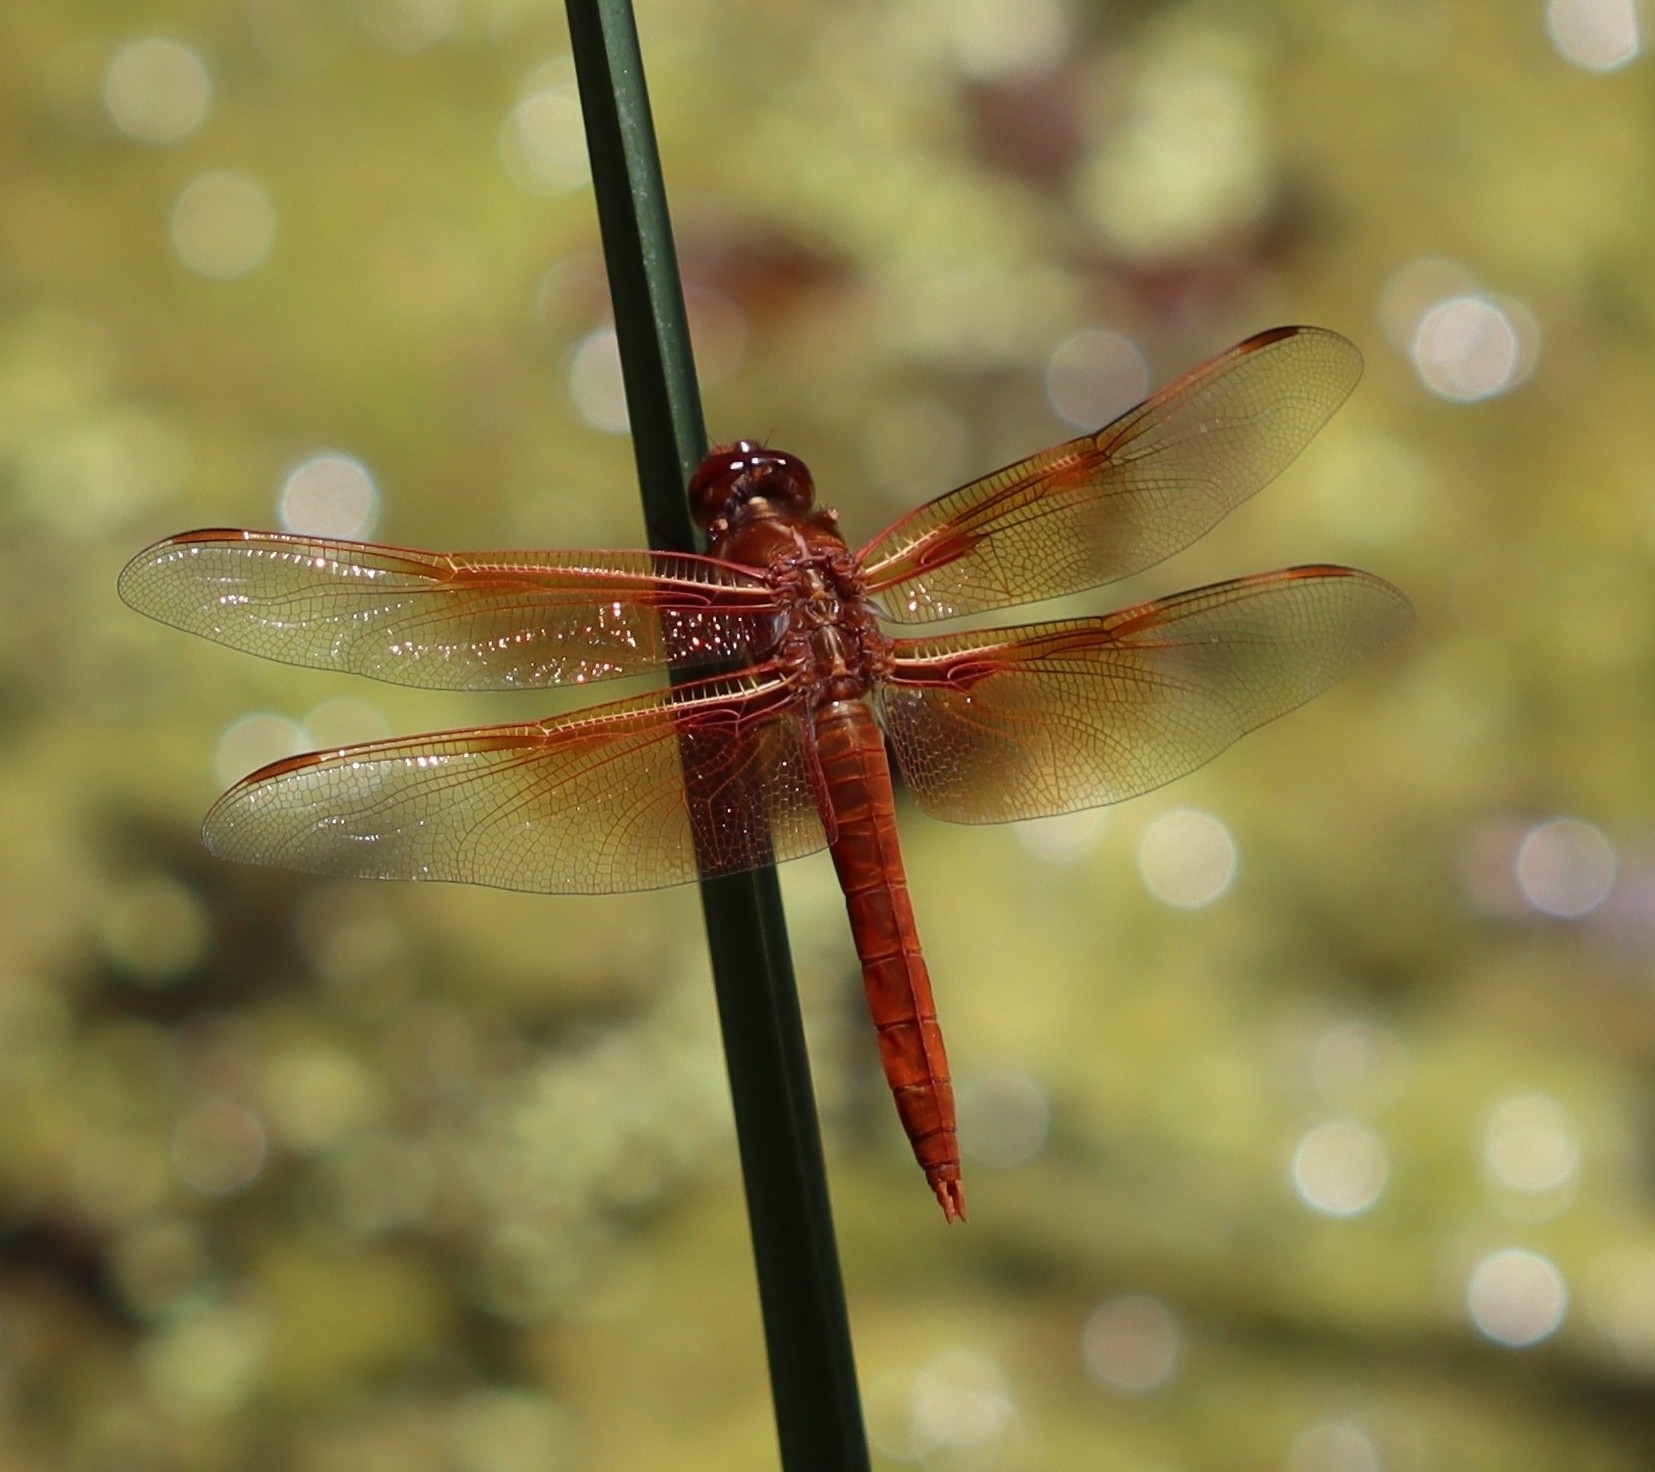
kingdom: Animalia
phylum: Arthropoda
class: Insecta
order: Odonata
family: Libellulidae
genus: Libellula
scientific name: Libellula saturata
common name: Flame skimmer
